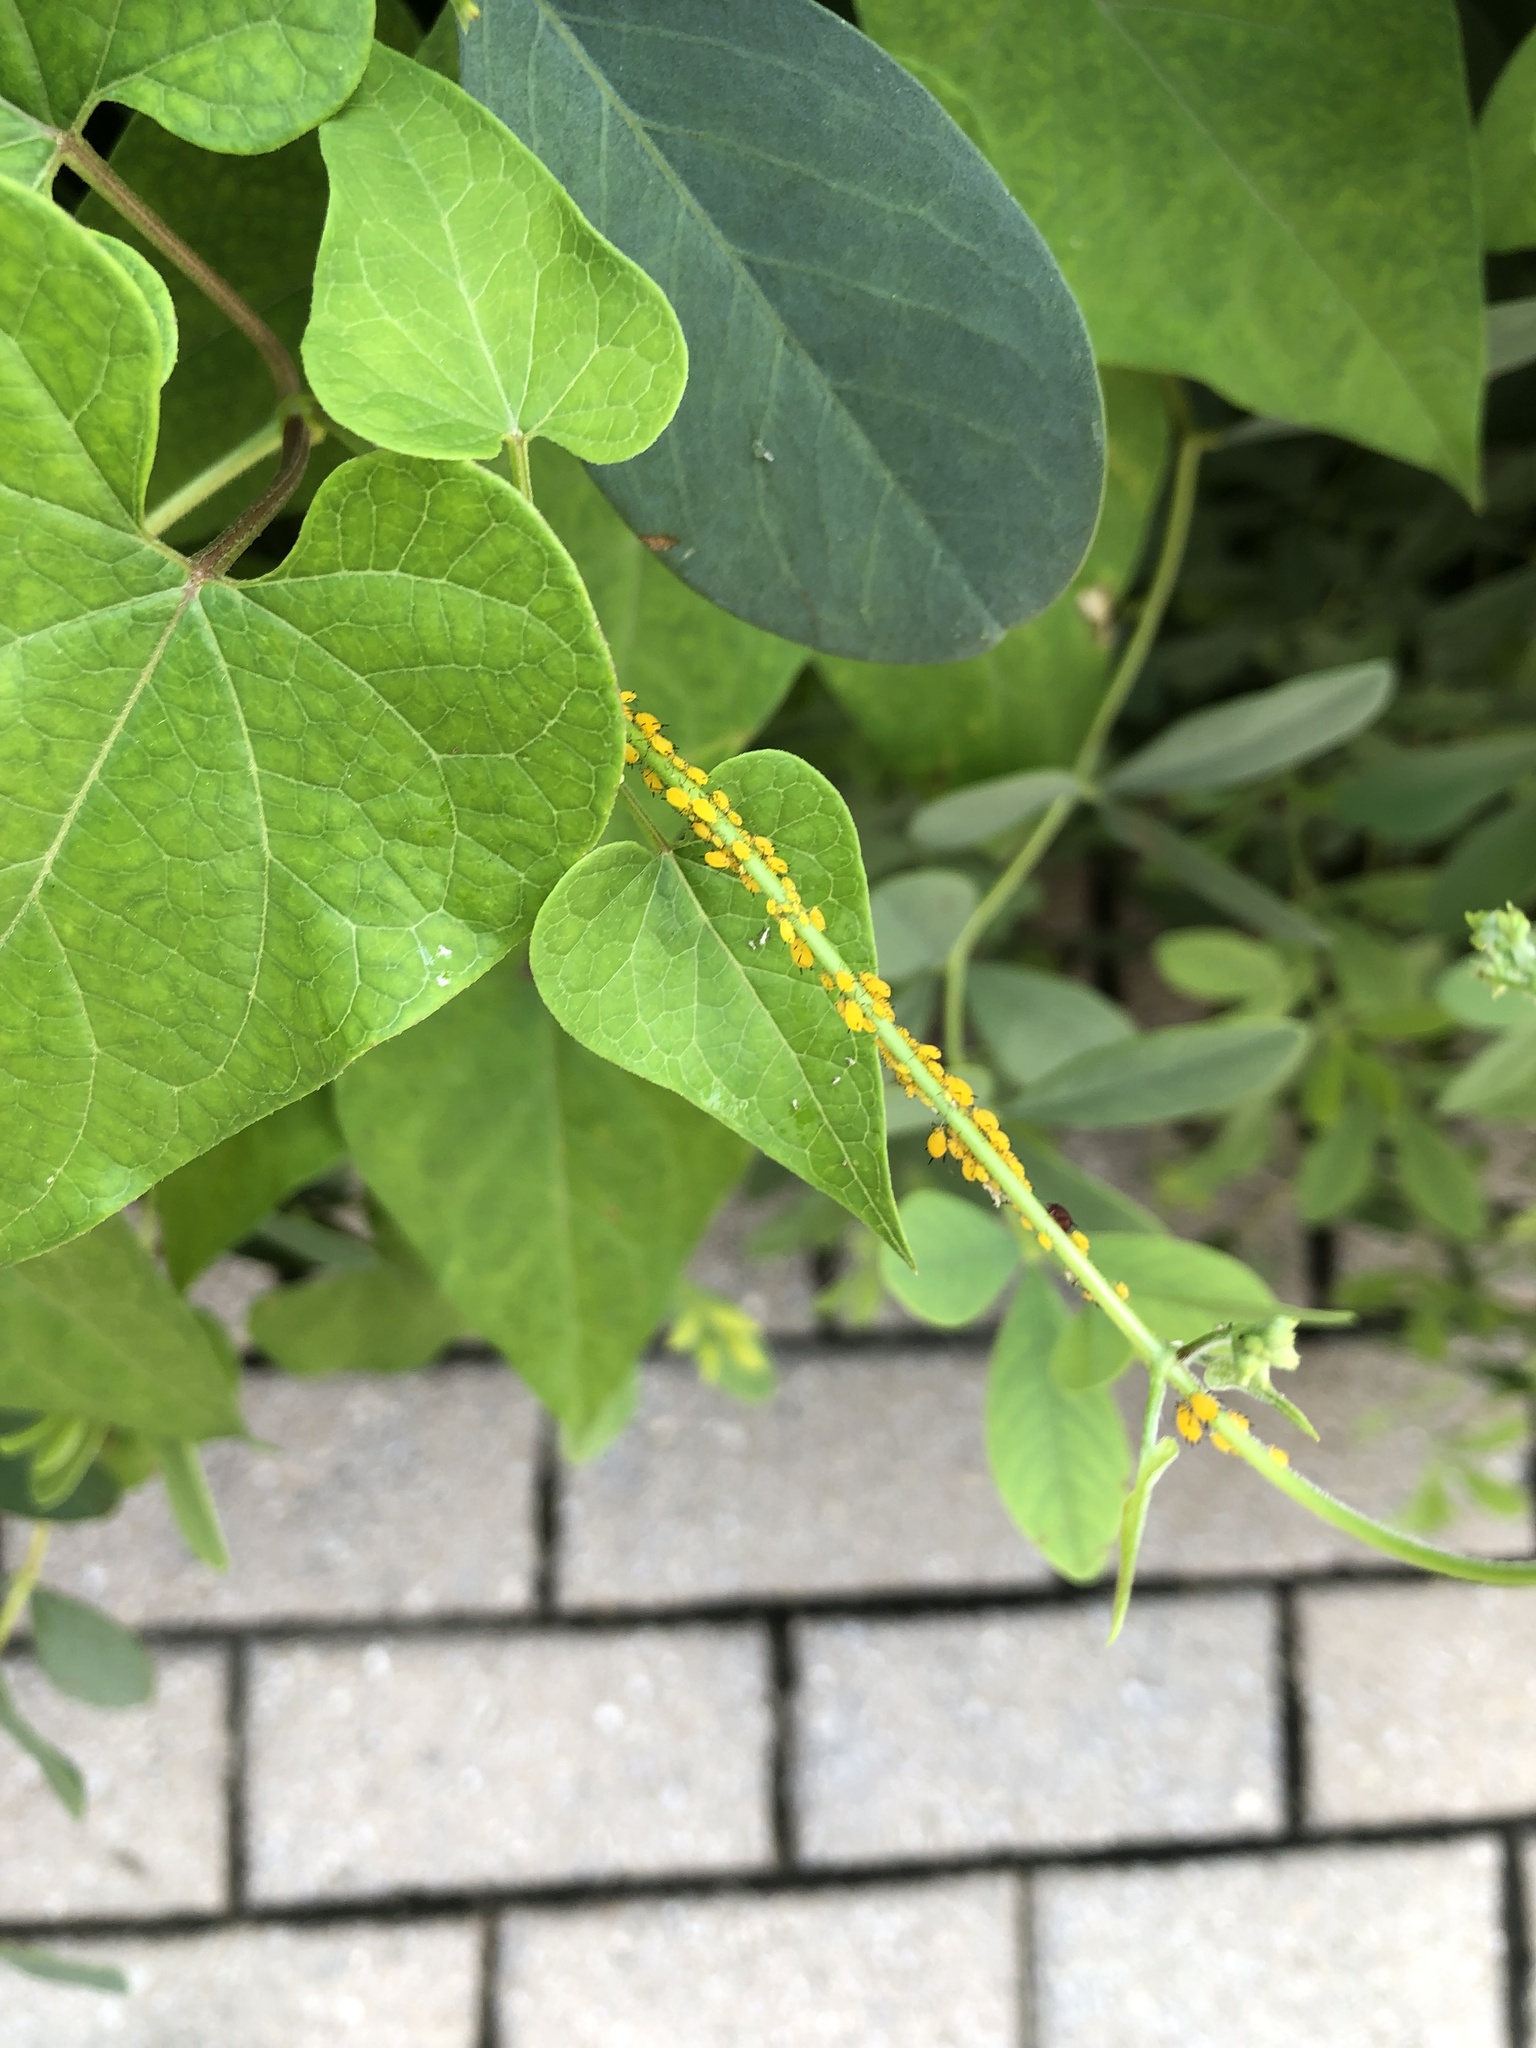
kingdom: Animalia
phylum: Arthropoda
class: Insecta
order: Hemiptera
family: Aphididae
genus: Aphis
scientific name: Aphis nerii
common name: Oleander aphid
